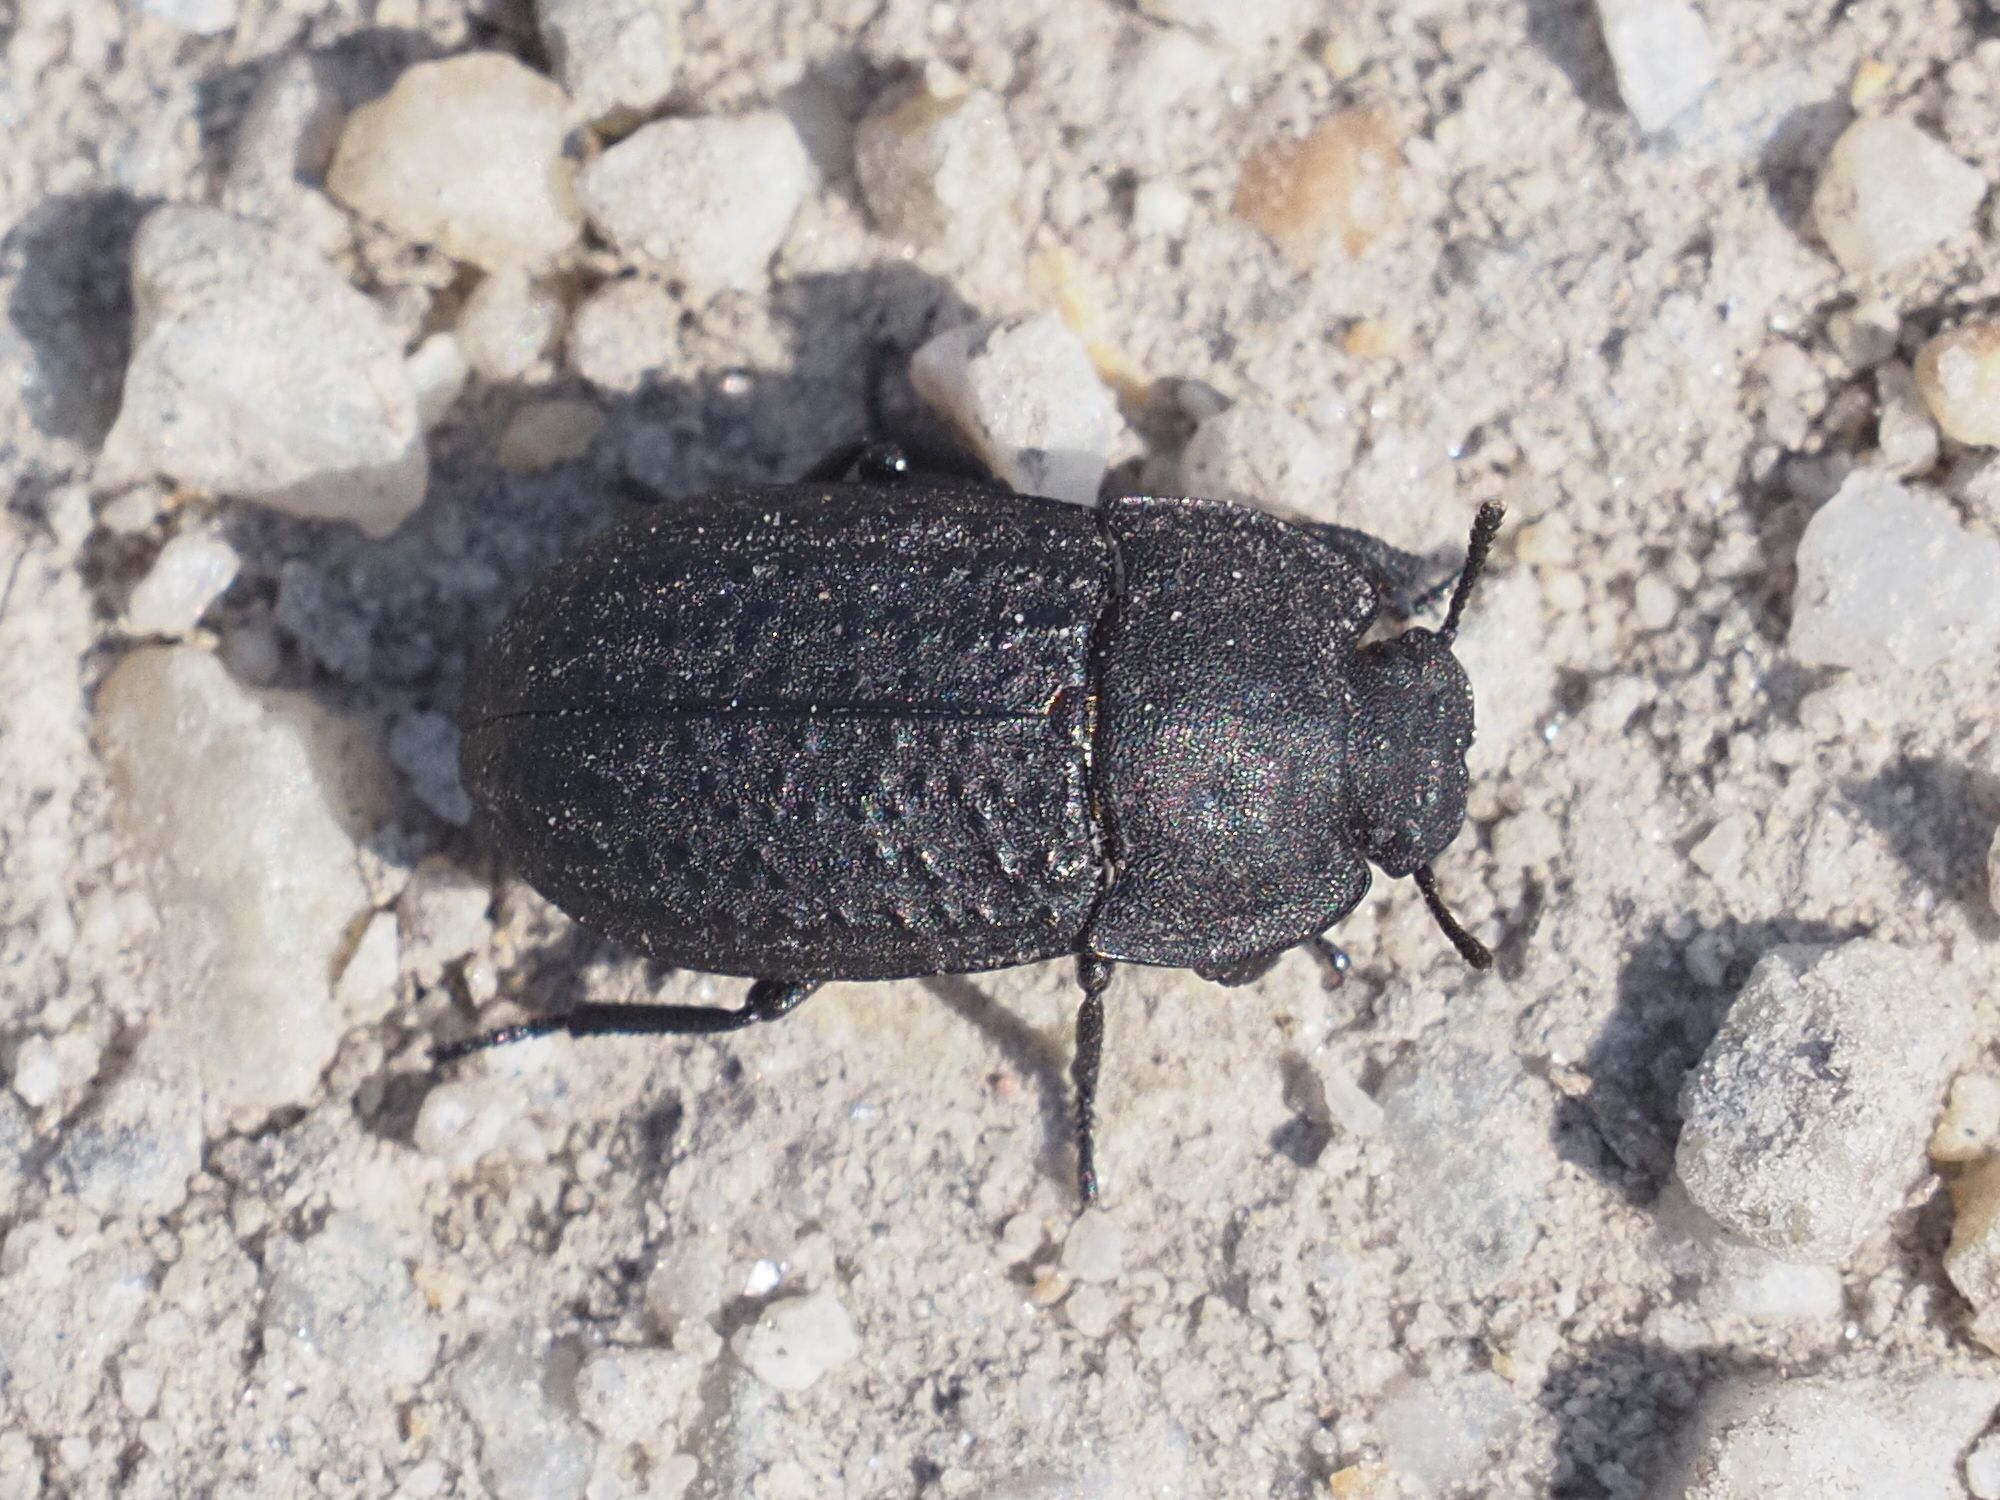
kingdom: Animalia
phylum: Arthropoda
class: Insecta
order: Coleoptera
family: Tenebrionidae
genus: Opatrum
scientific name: Opatrum sabulosum
